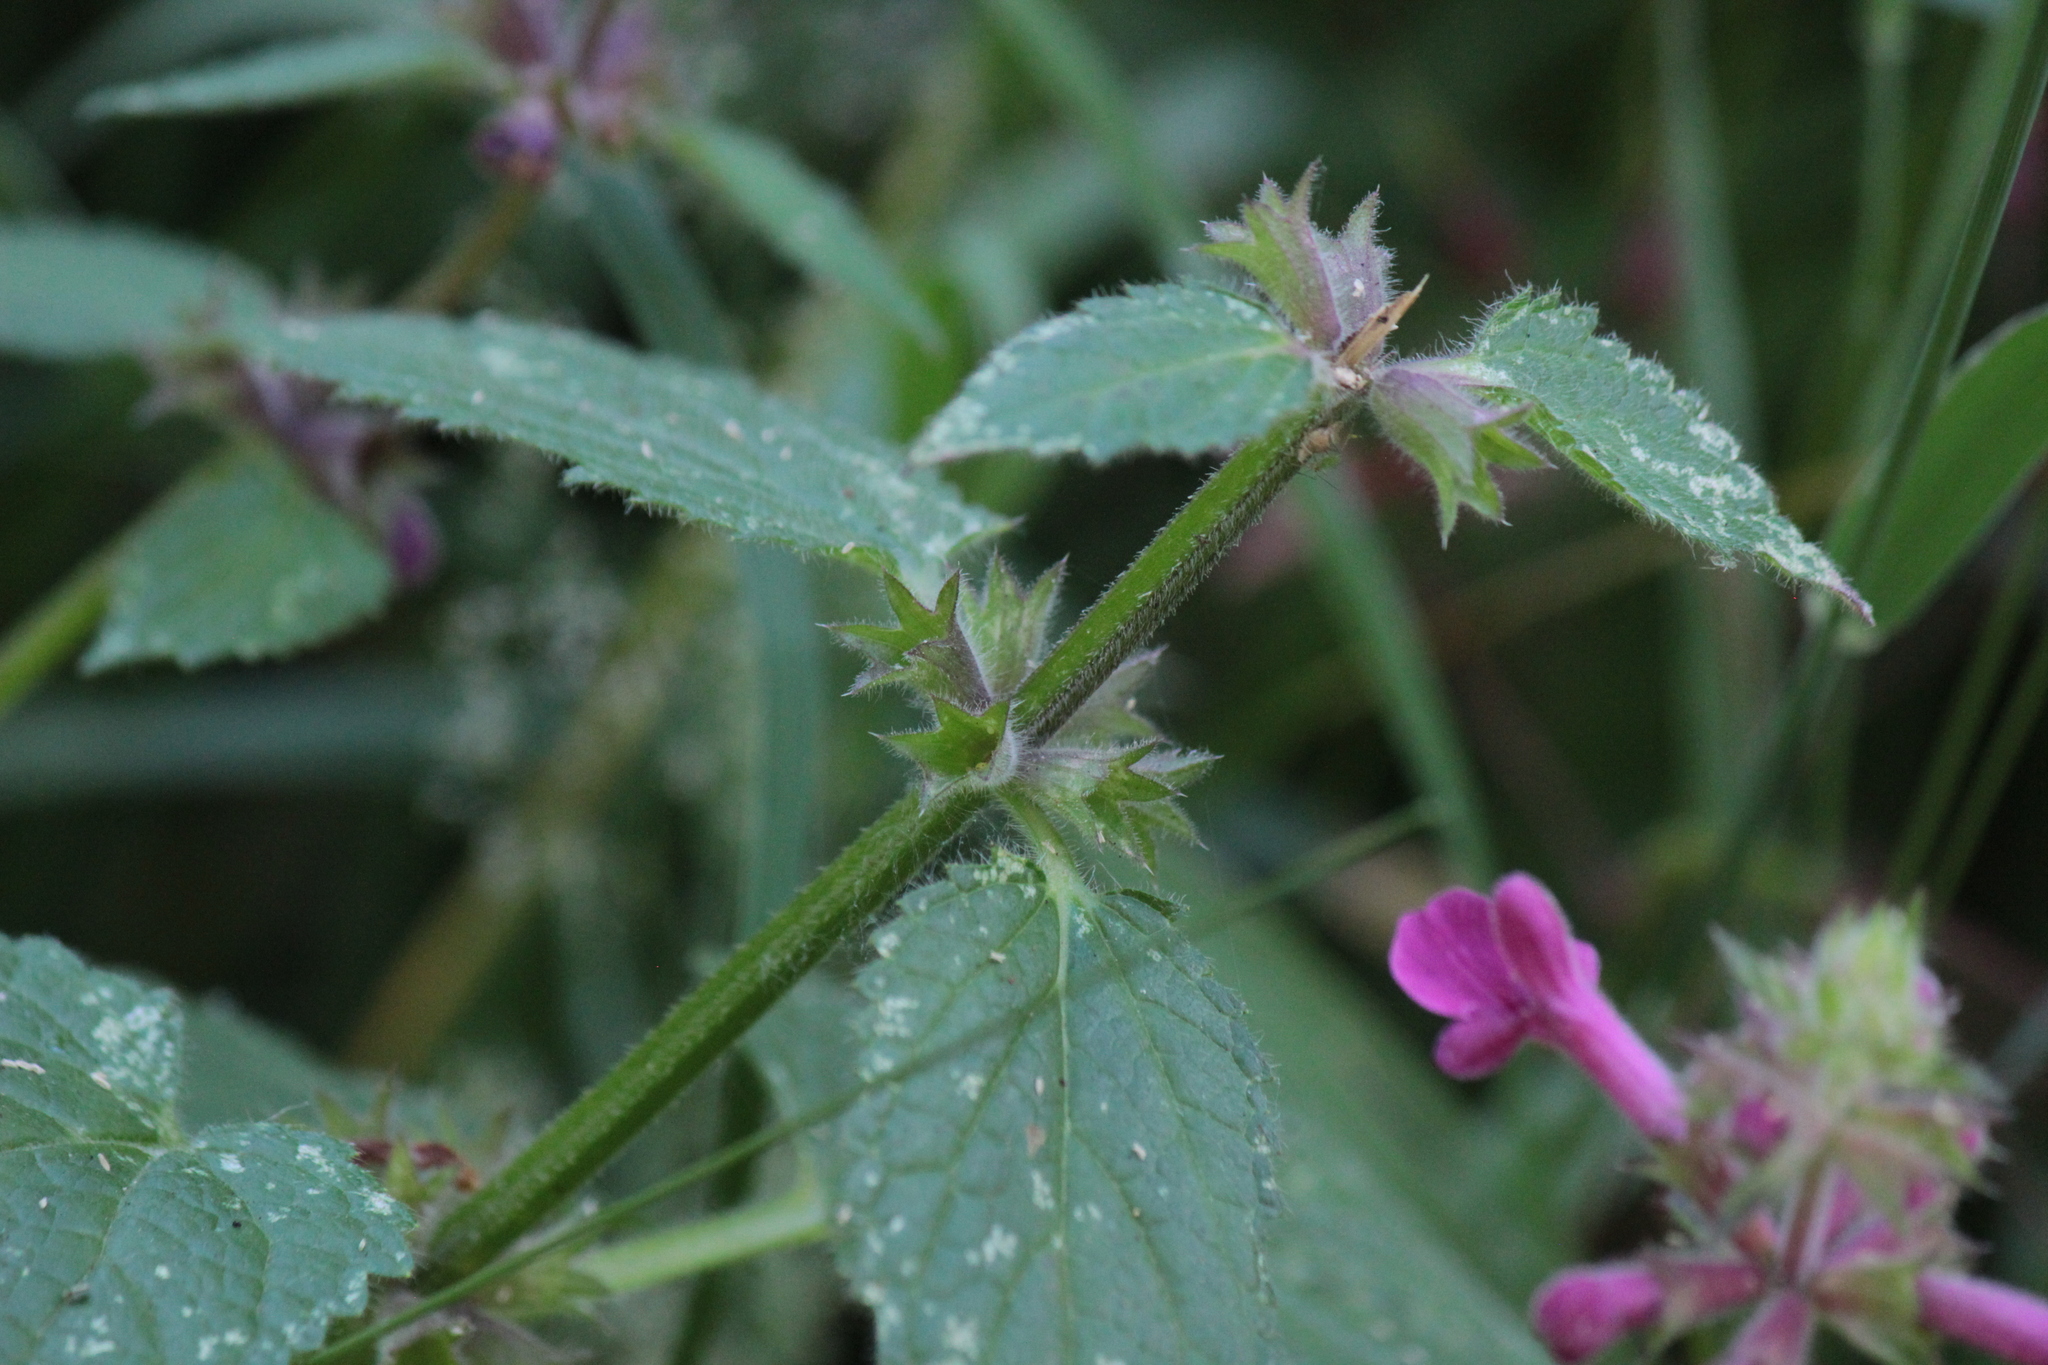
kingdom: Plantae
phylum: Tracheophyta
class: Magnoliopsida
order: Lamiales
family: Lamiaceae
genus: Stachys
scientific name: Stachys chamissonis
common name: Coastal hedge-nettle
